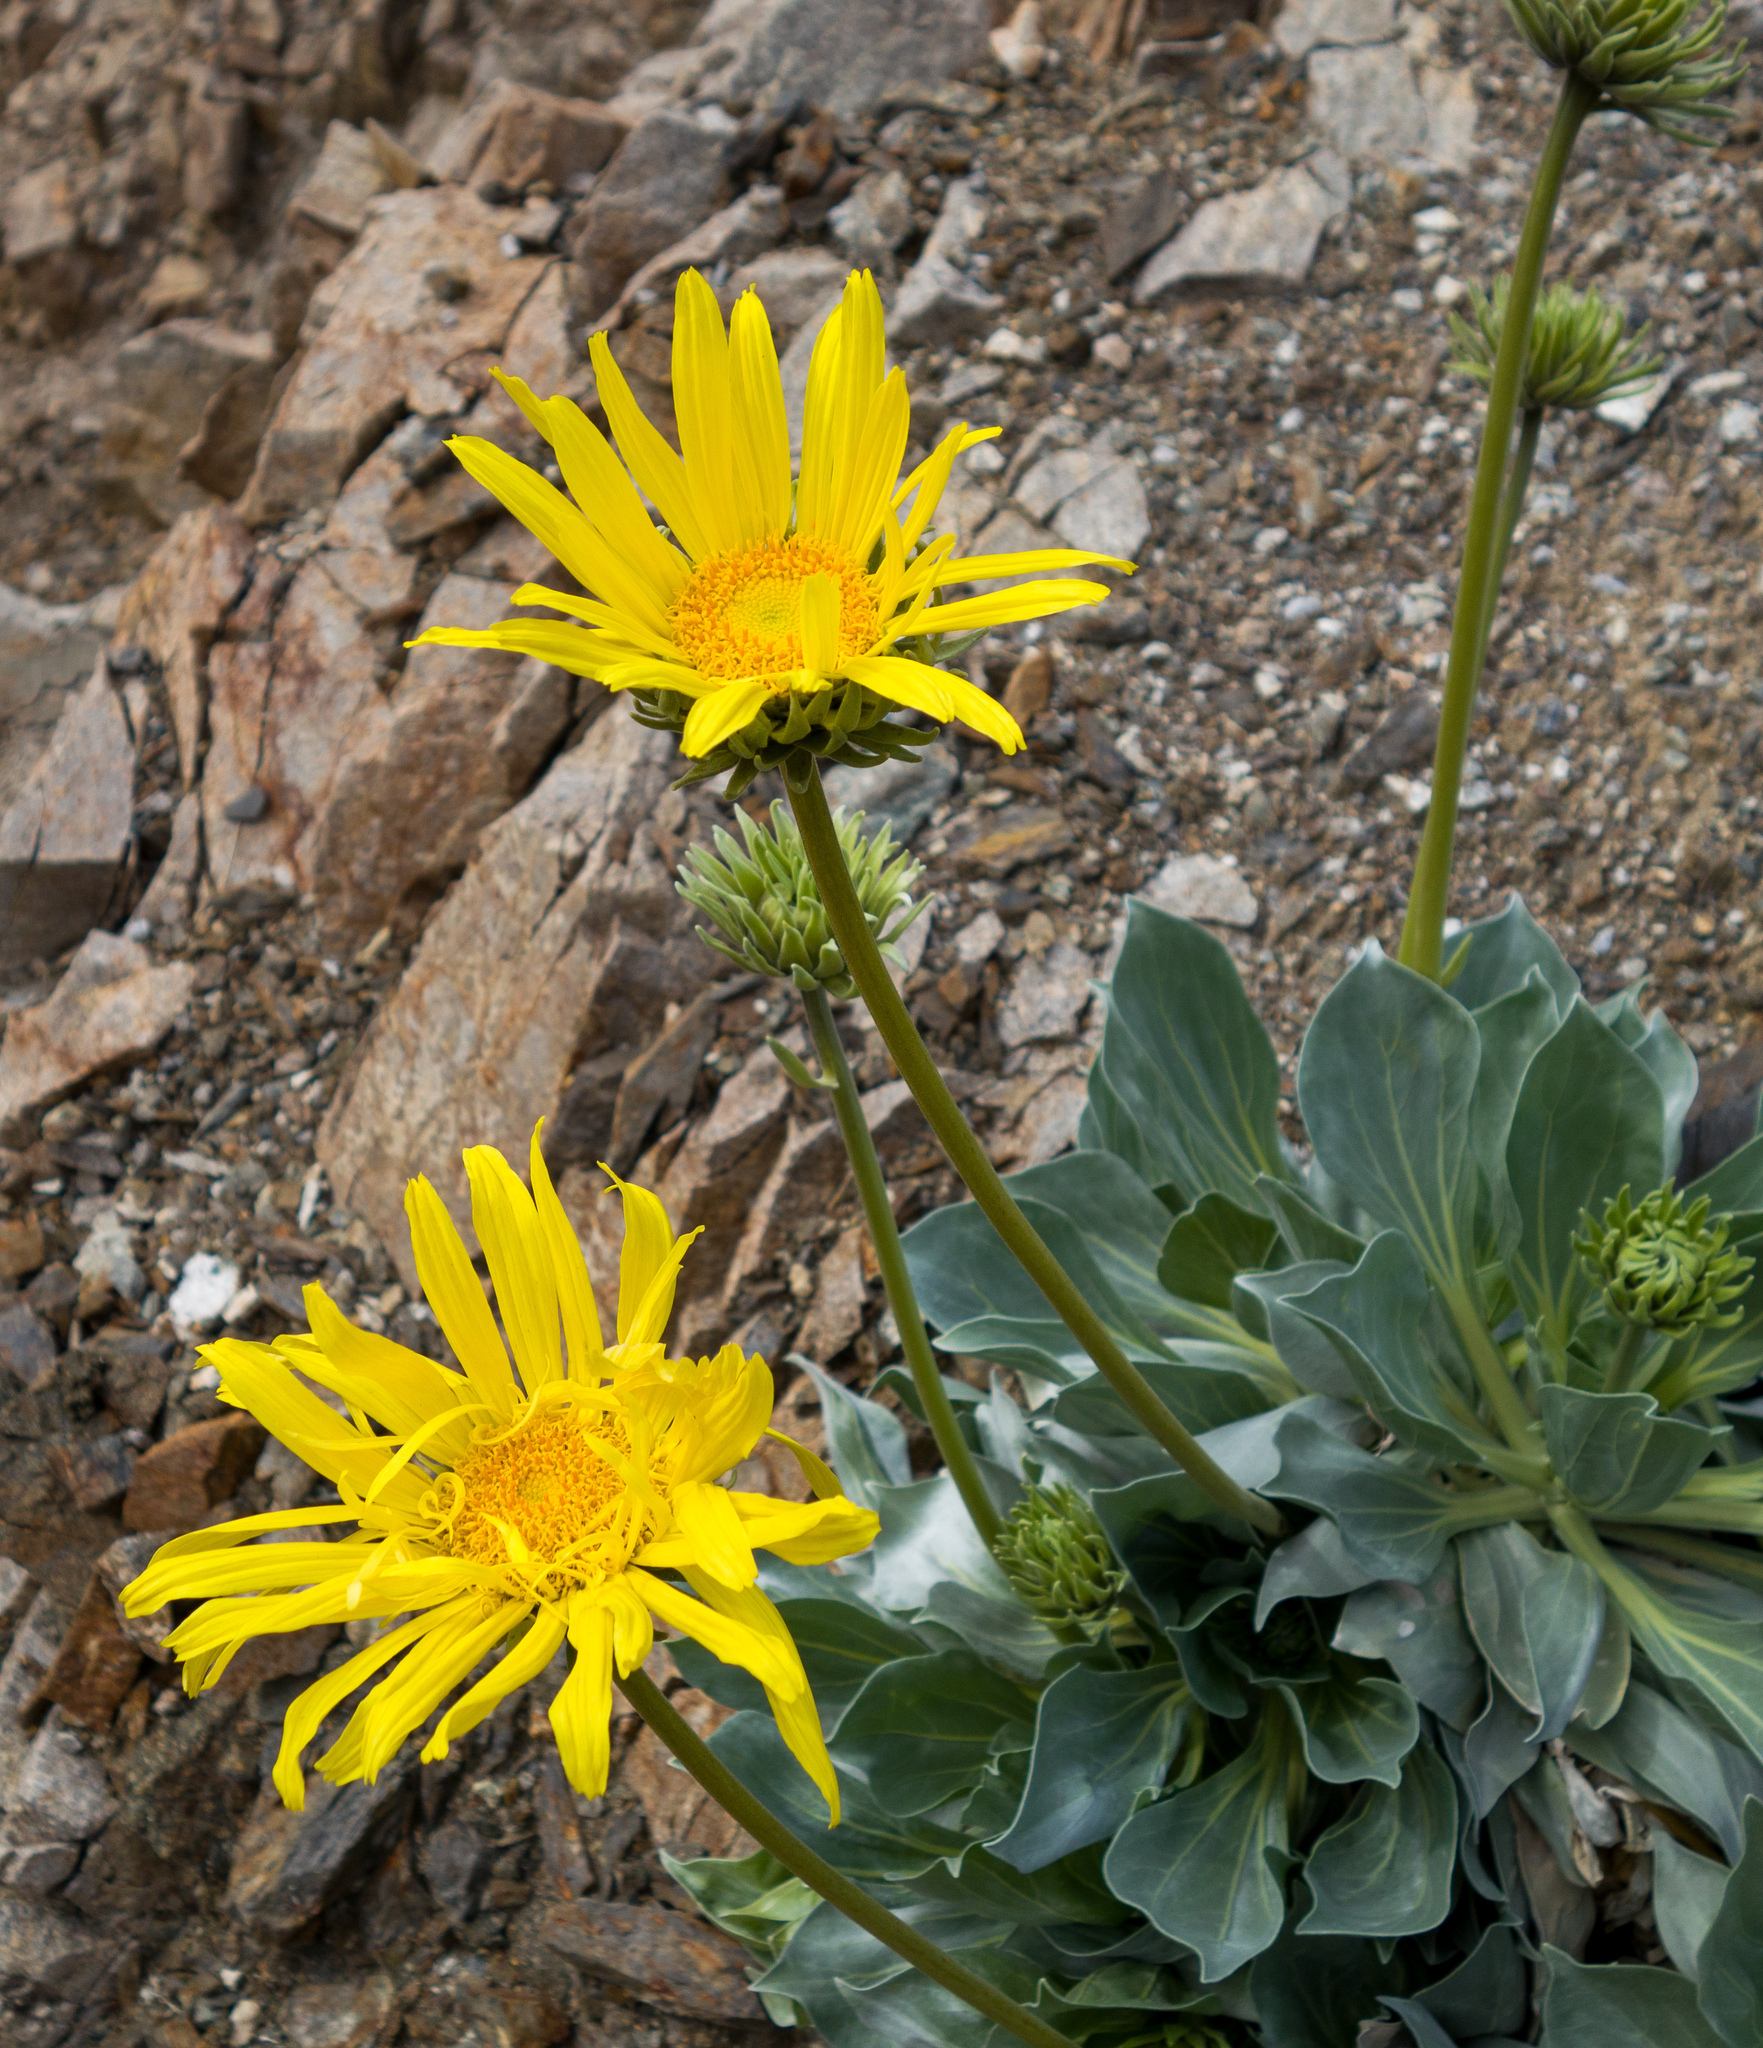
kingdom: Plantae
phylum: Tracheophyta
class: Magnoliopsida
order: Asterales
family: Asteraceae
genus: Enceliopsis
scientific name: Enceliopsis covillei
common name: Panamint daisy
